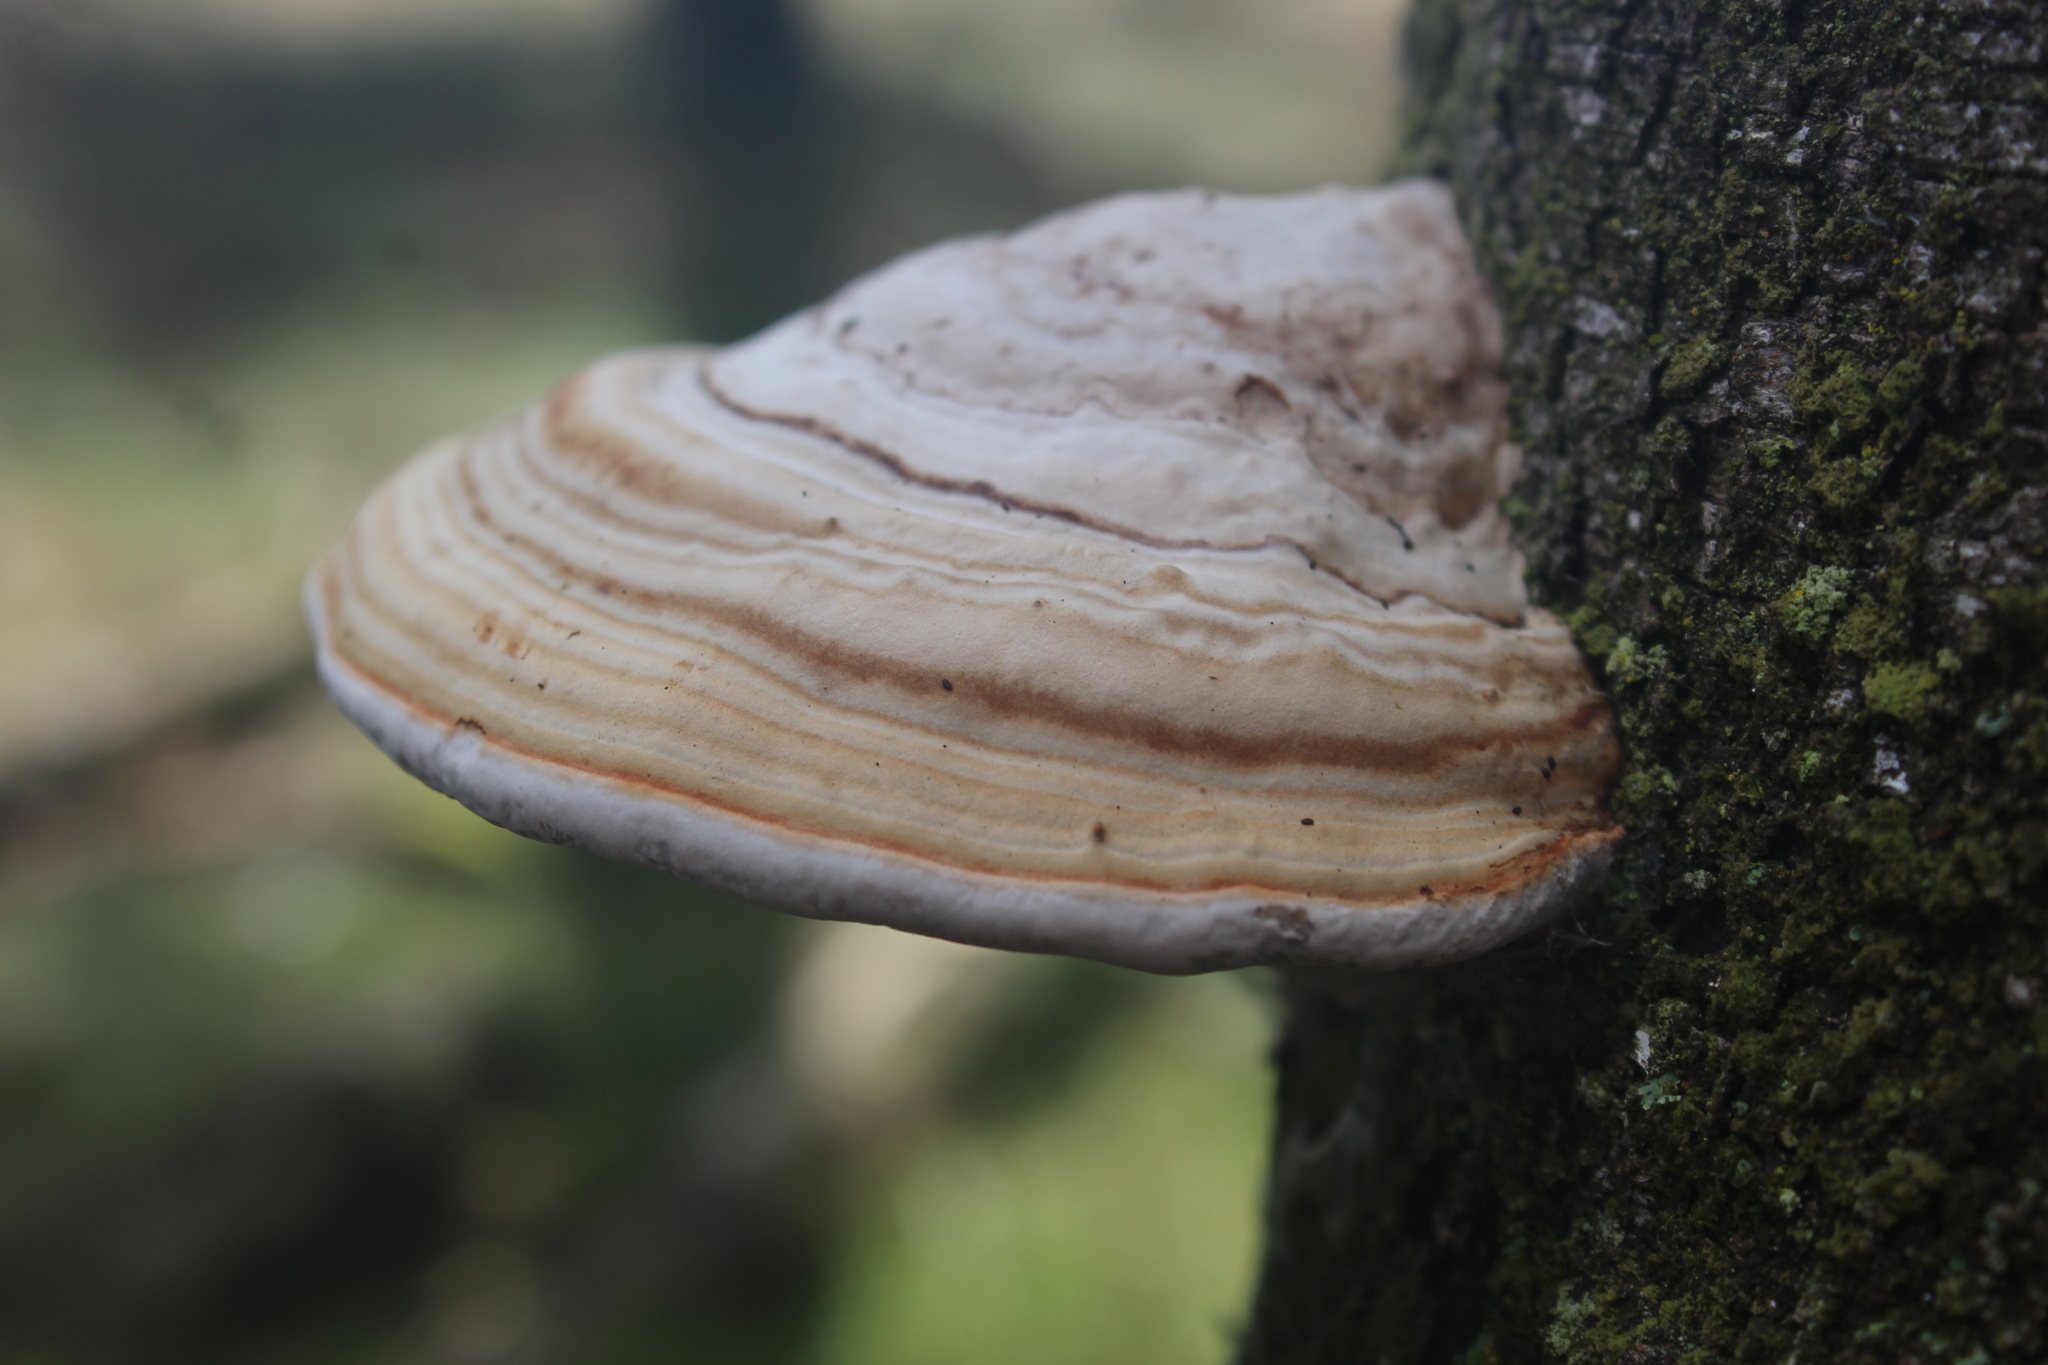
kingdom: Fungi
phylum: Basidiomycota
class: Agaricomycetes
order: Polyporales
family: Polyporaceae
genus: Fomes
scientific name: Fomes fomentarius
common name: Hoof fungus
